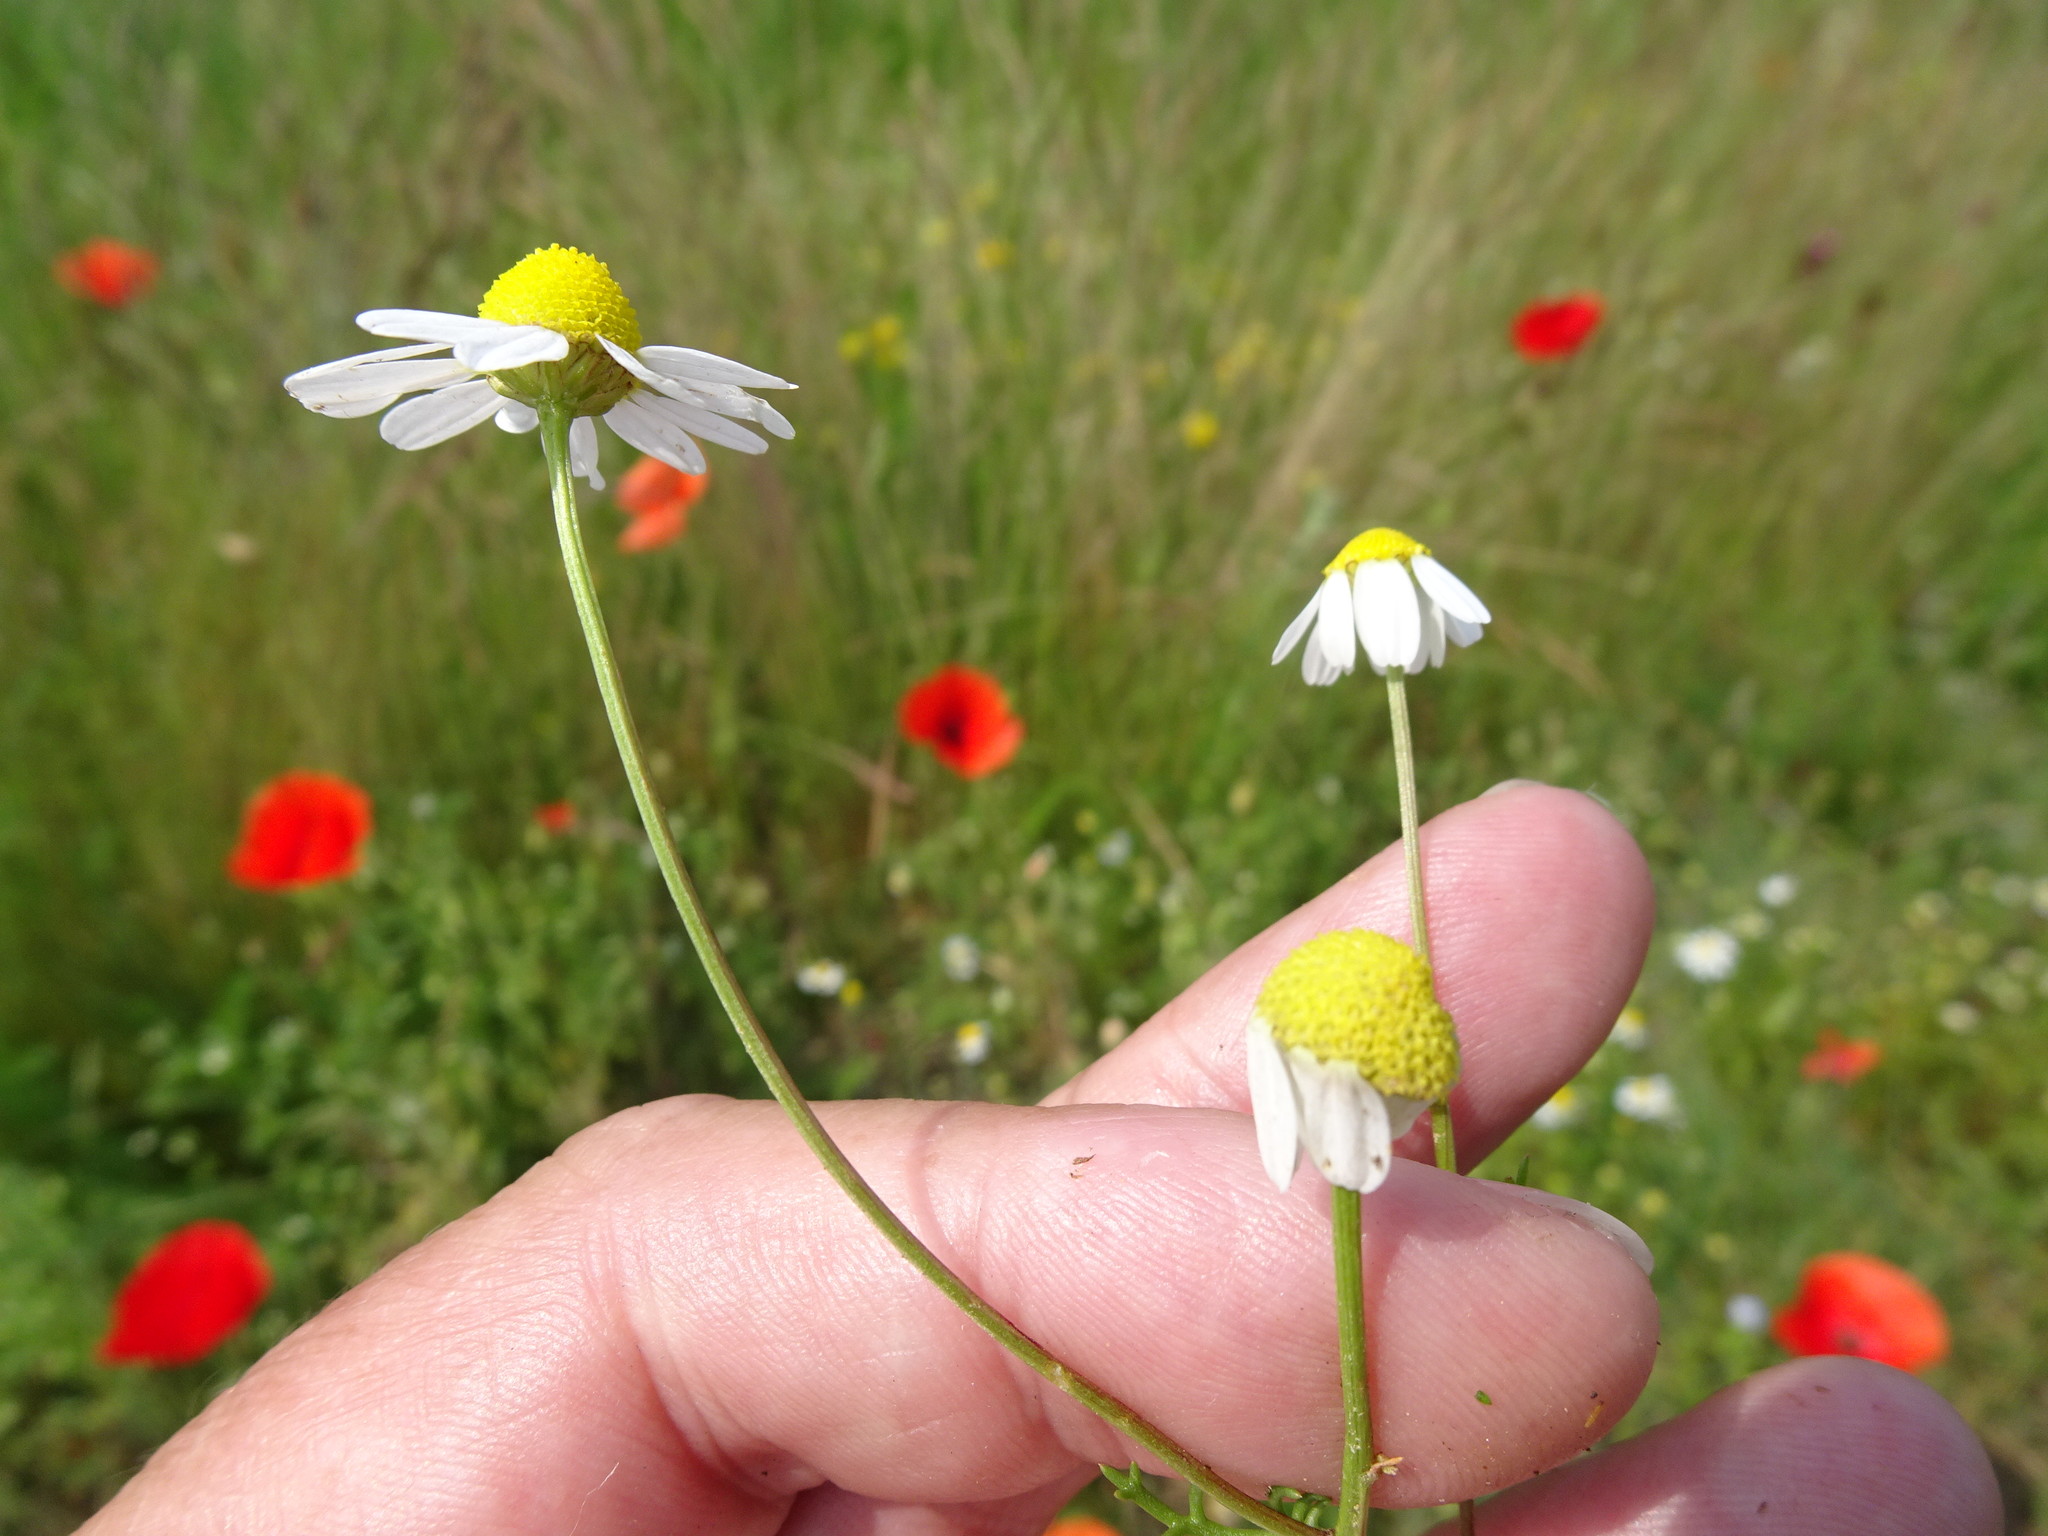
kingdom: Plantae
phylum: Tracheophyta
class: Magnoliopsida
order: Asterales
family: Asteraceae
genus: Matricaria
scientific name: Matricaria chamomilla
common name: Scented mayweed
